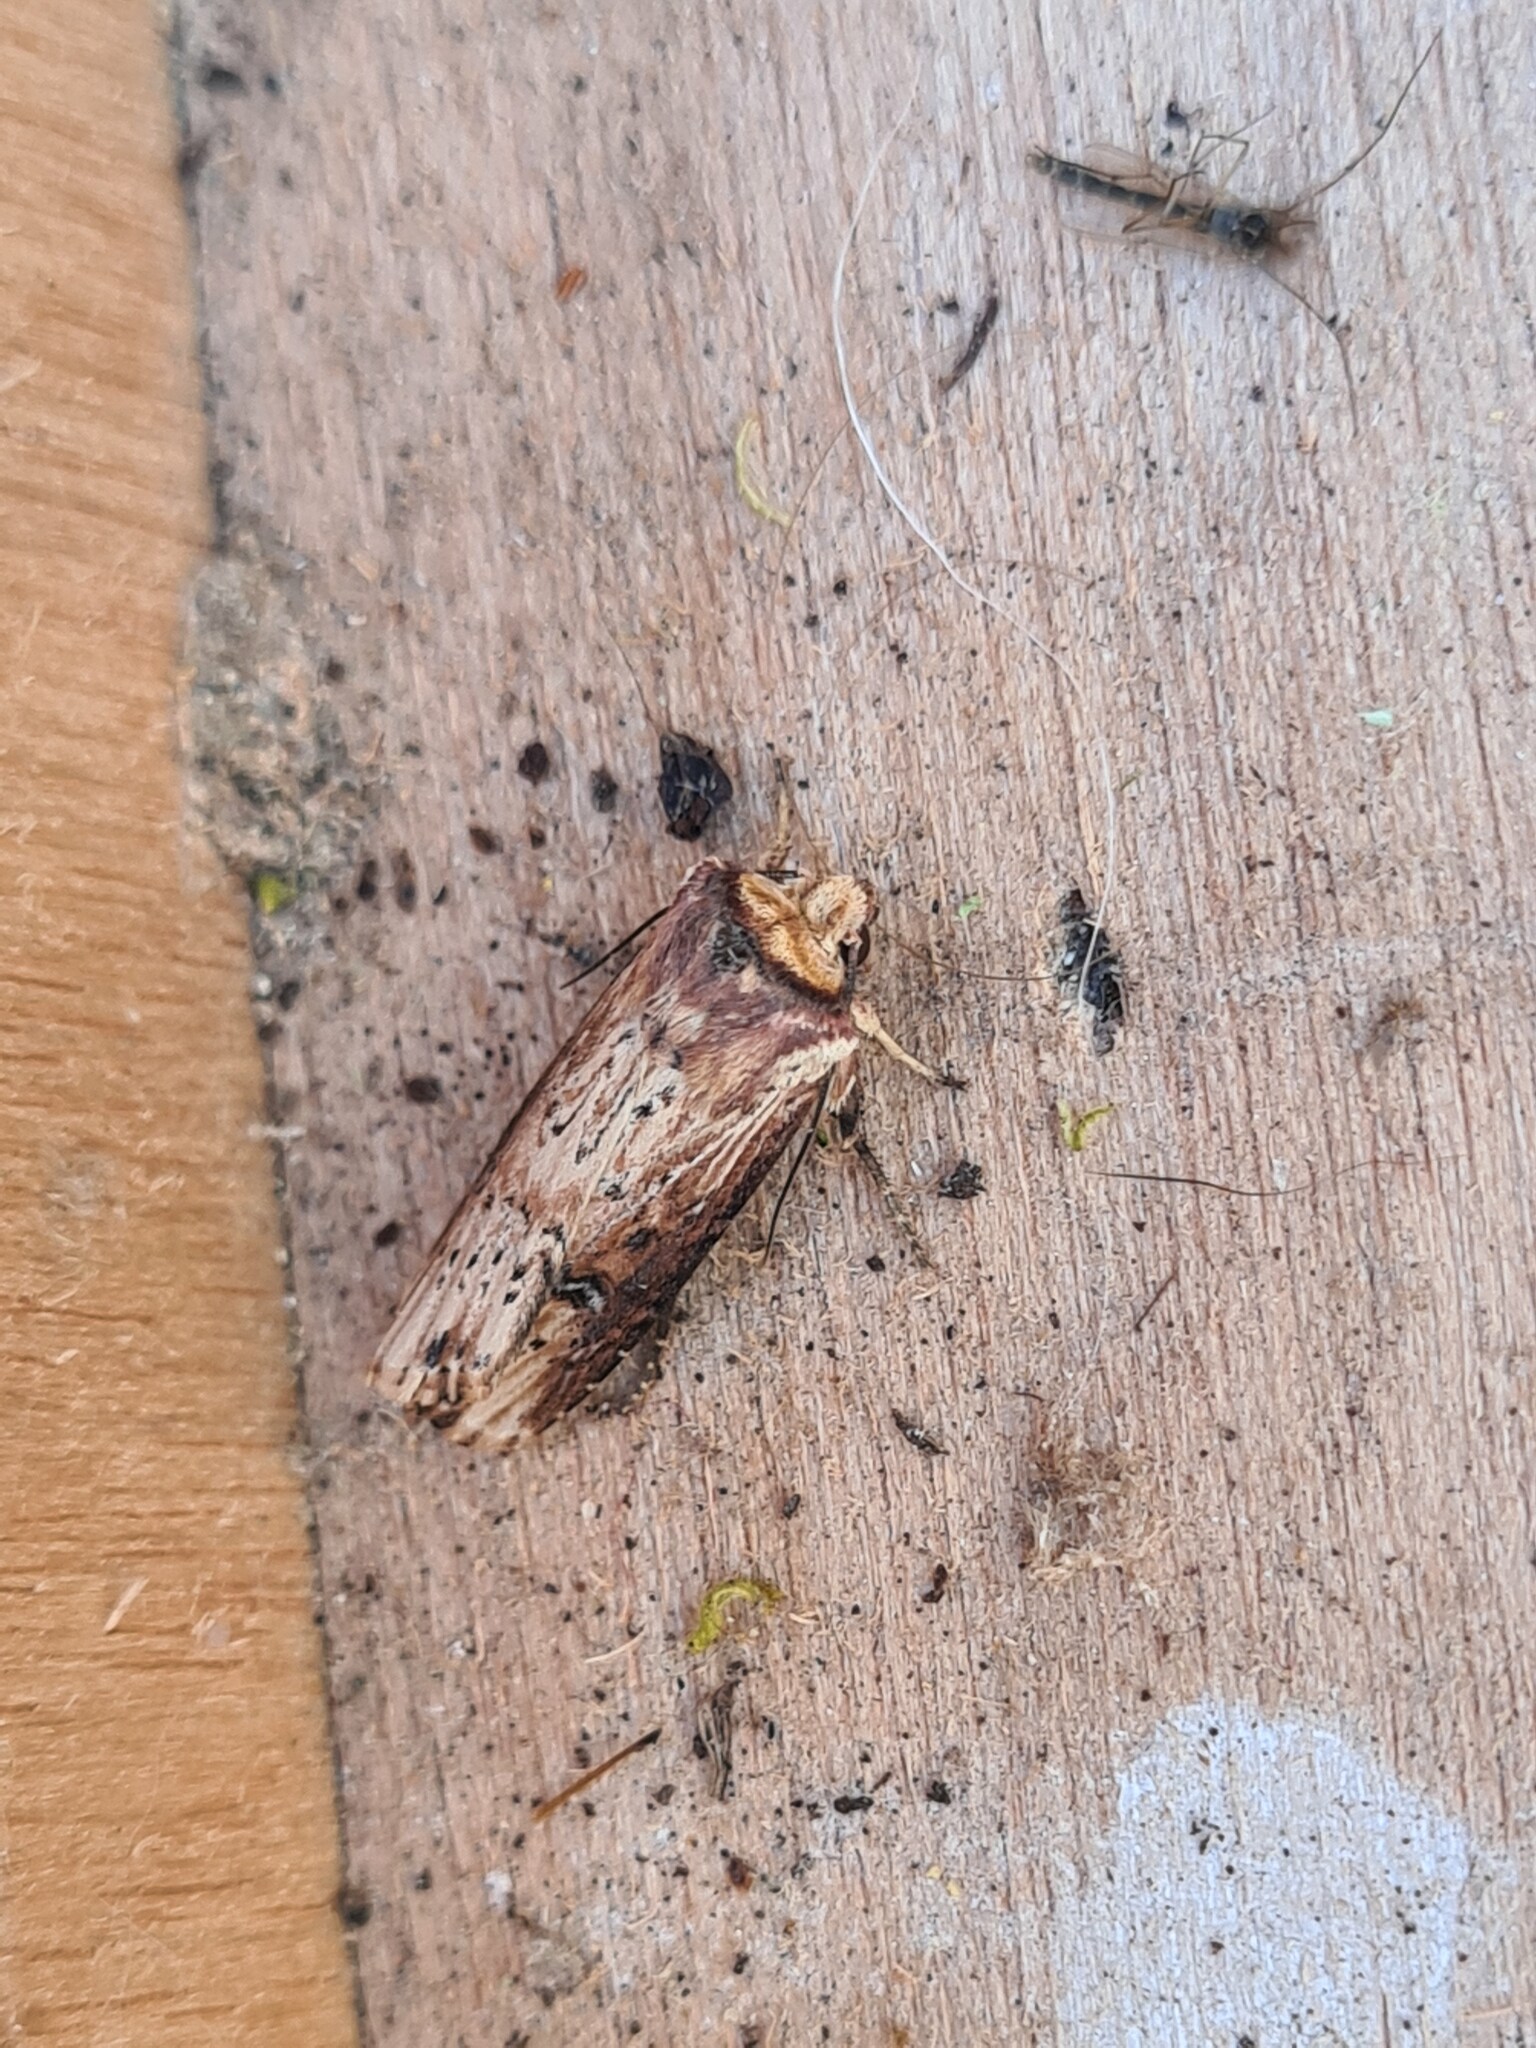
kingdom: Animalia
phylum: Arthropoda
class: Insecta
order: Lepidoptera
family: Noctuidae
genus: Axylia
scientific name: Axylia putris
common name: Flame
